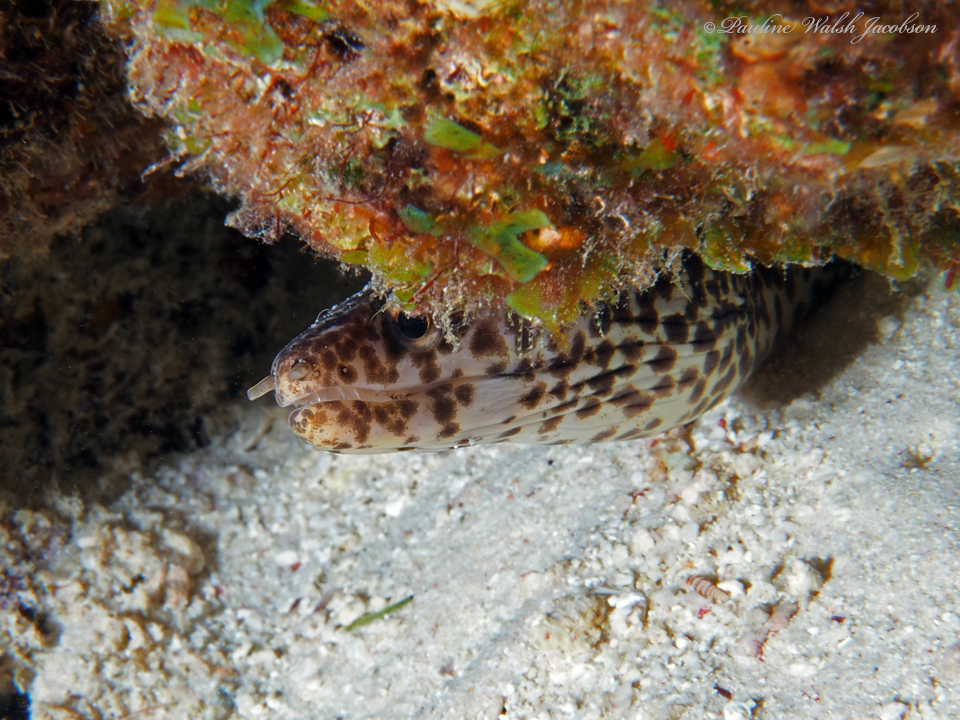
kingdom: Animalia
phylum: Chordata
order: Anguilliformes
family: Muraenidae
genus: Gymnothorax
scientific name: Gymnothorax moringa
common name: Spotted moray
